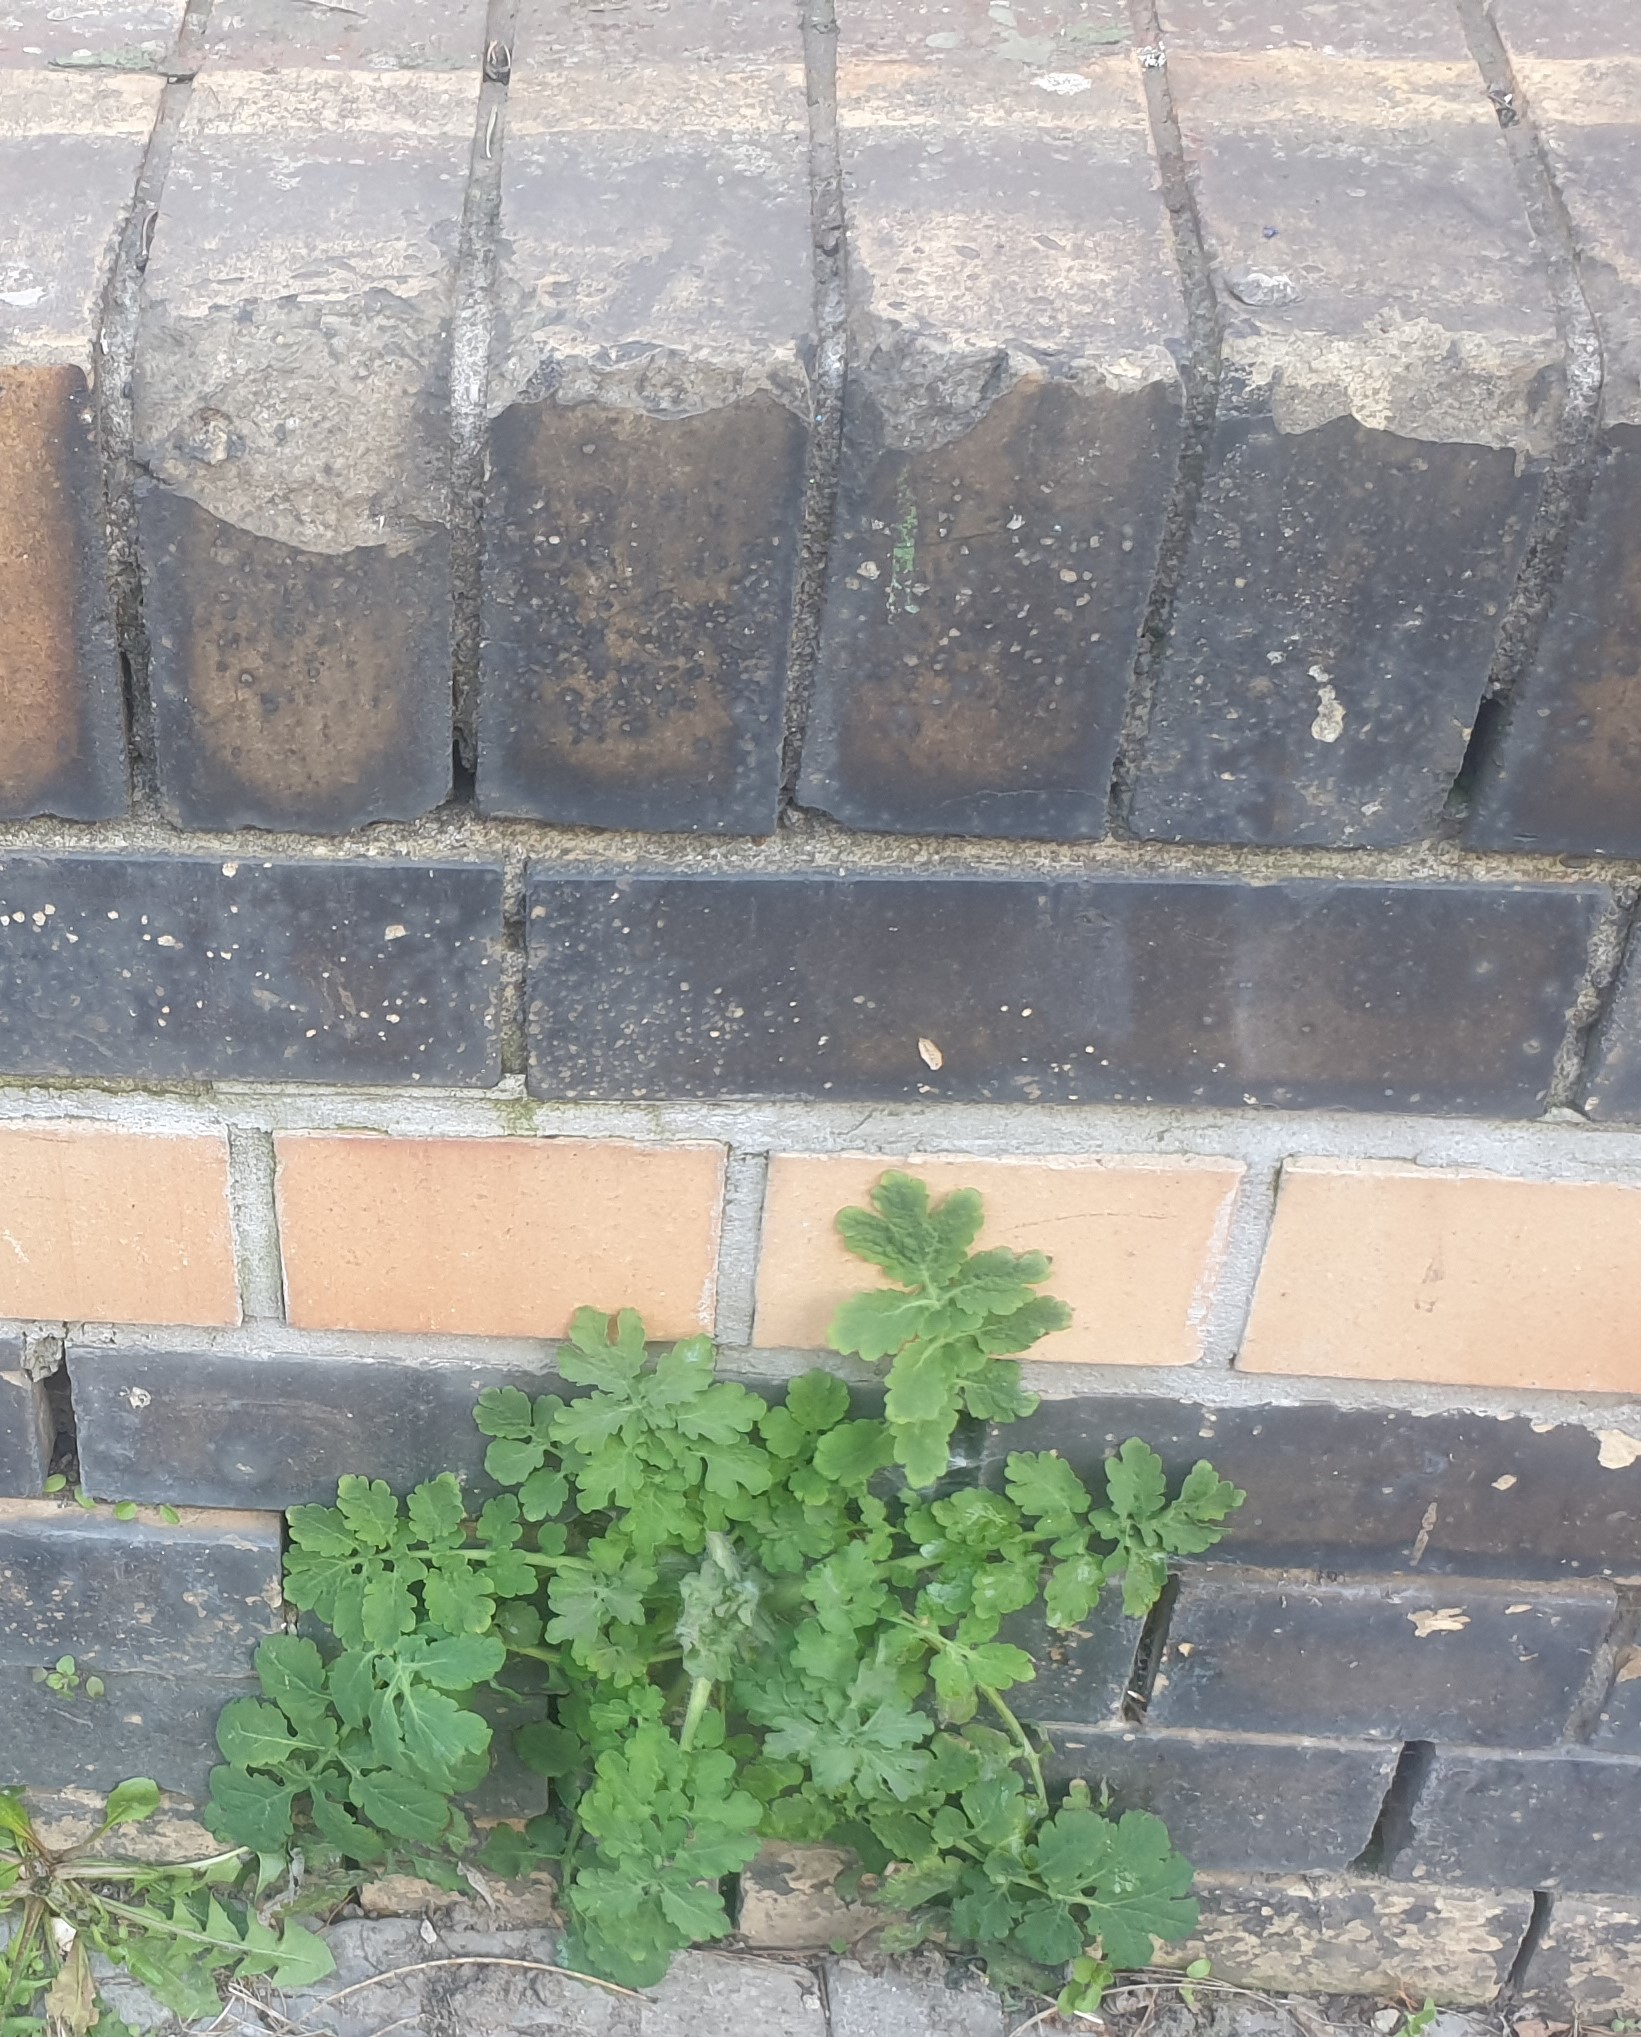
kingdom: Plantae
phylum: Tracheophyta
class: Magnoliopsida
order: Ranunculales
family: Papaveraceae
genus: Chelidonium
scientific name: Chelidonium majus
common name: Greater celandine
